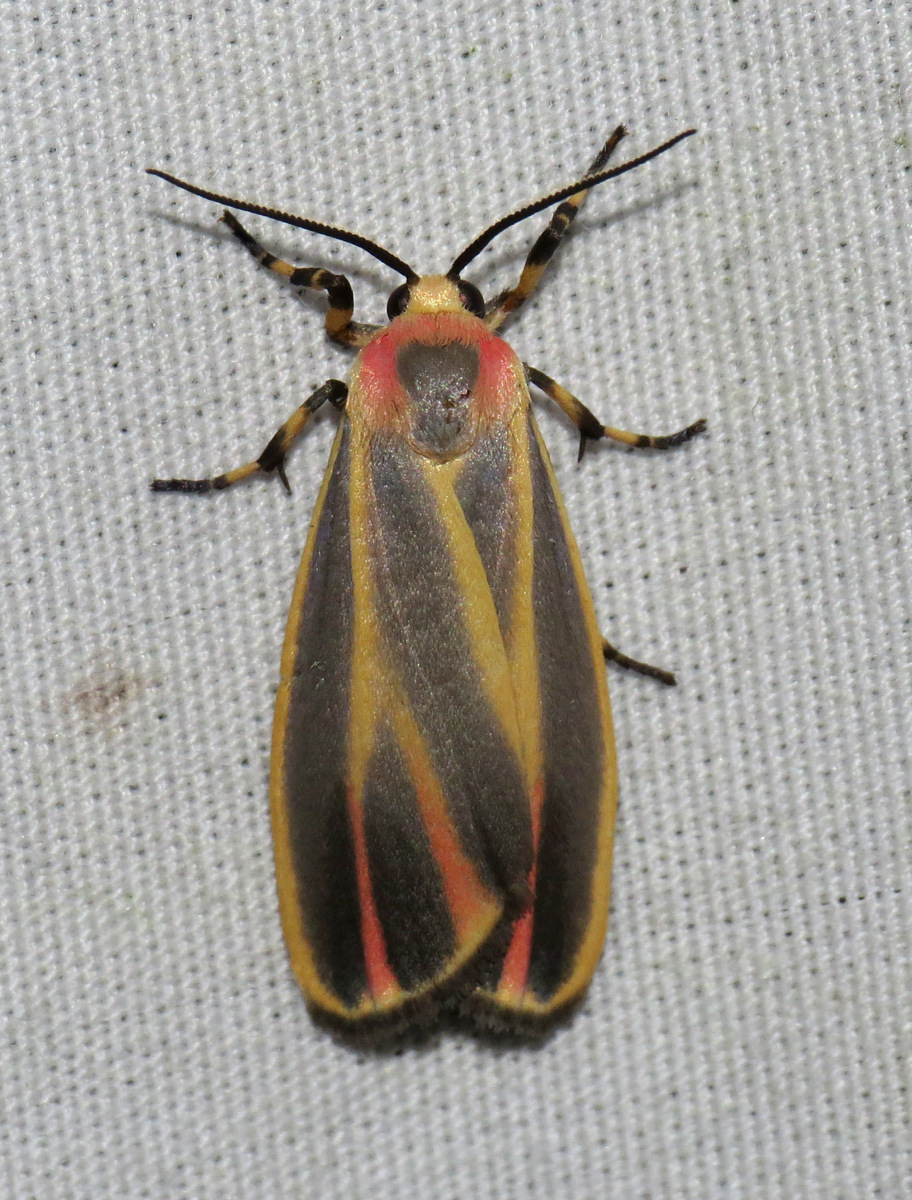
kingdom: Animalia
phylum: Arthropoda
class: Insecta
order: Lepidoptera
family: Erebidae
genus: Hypoprepia
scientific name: Hypoprepia fucosa
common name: Painted lichen moth
